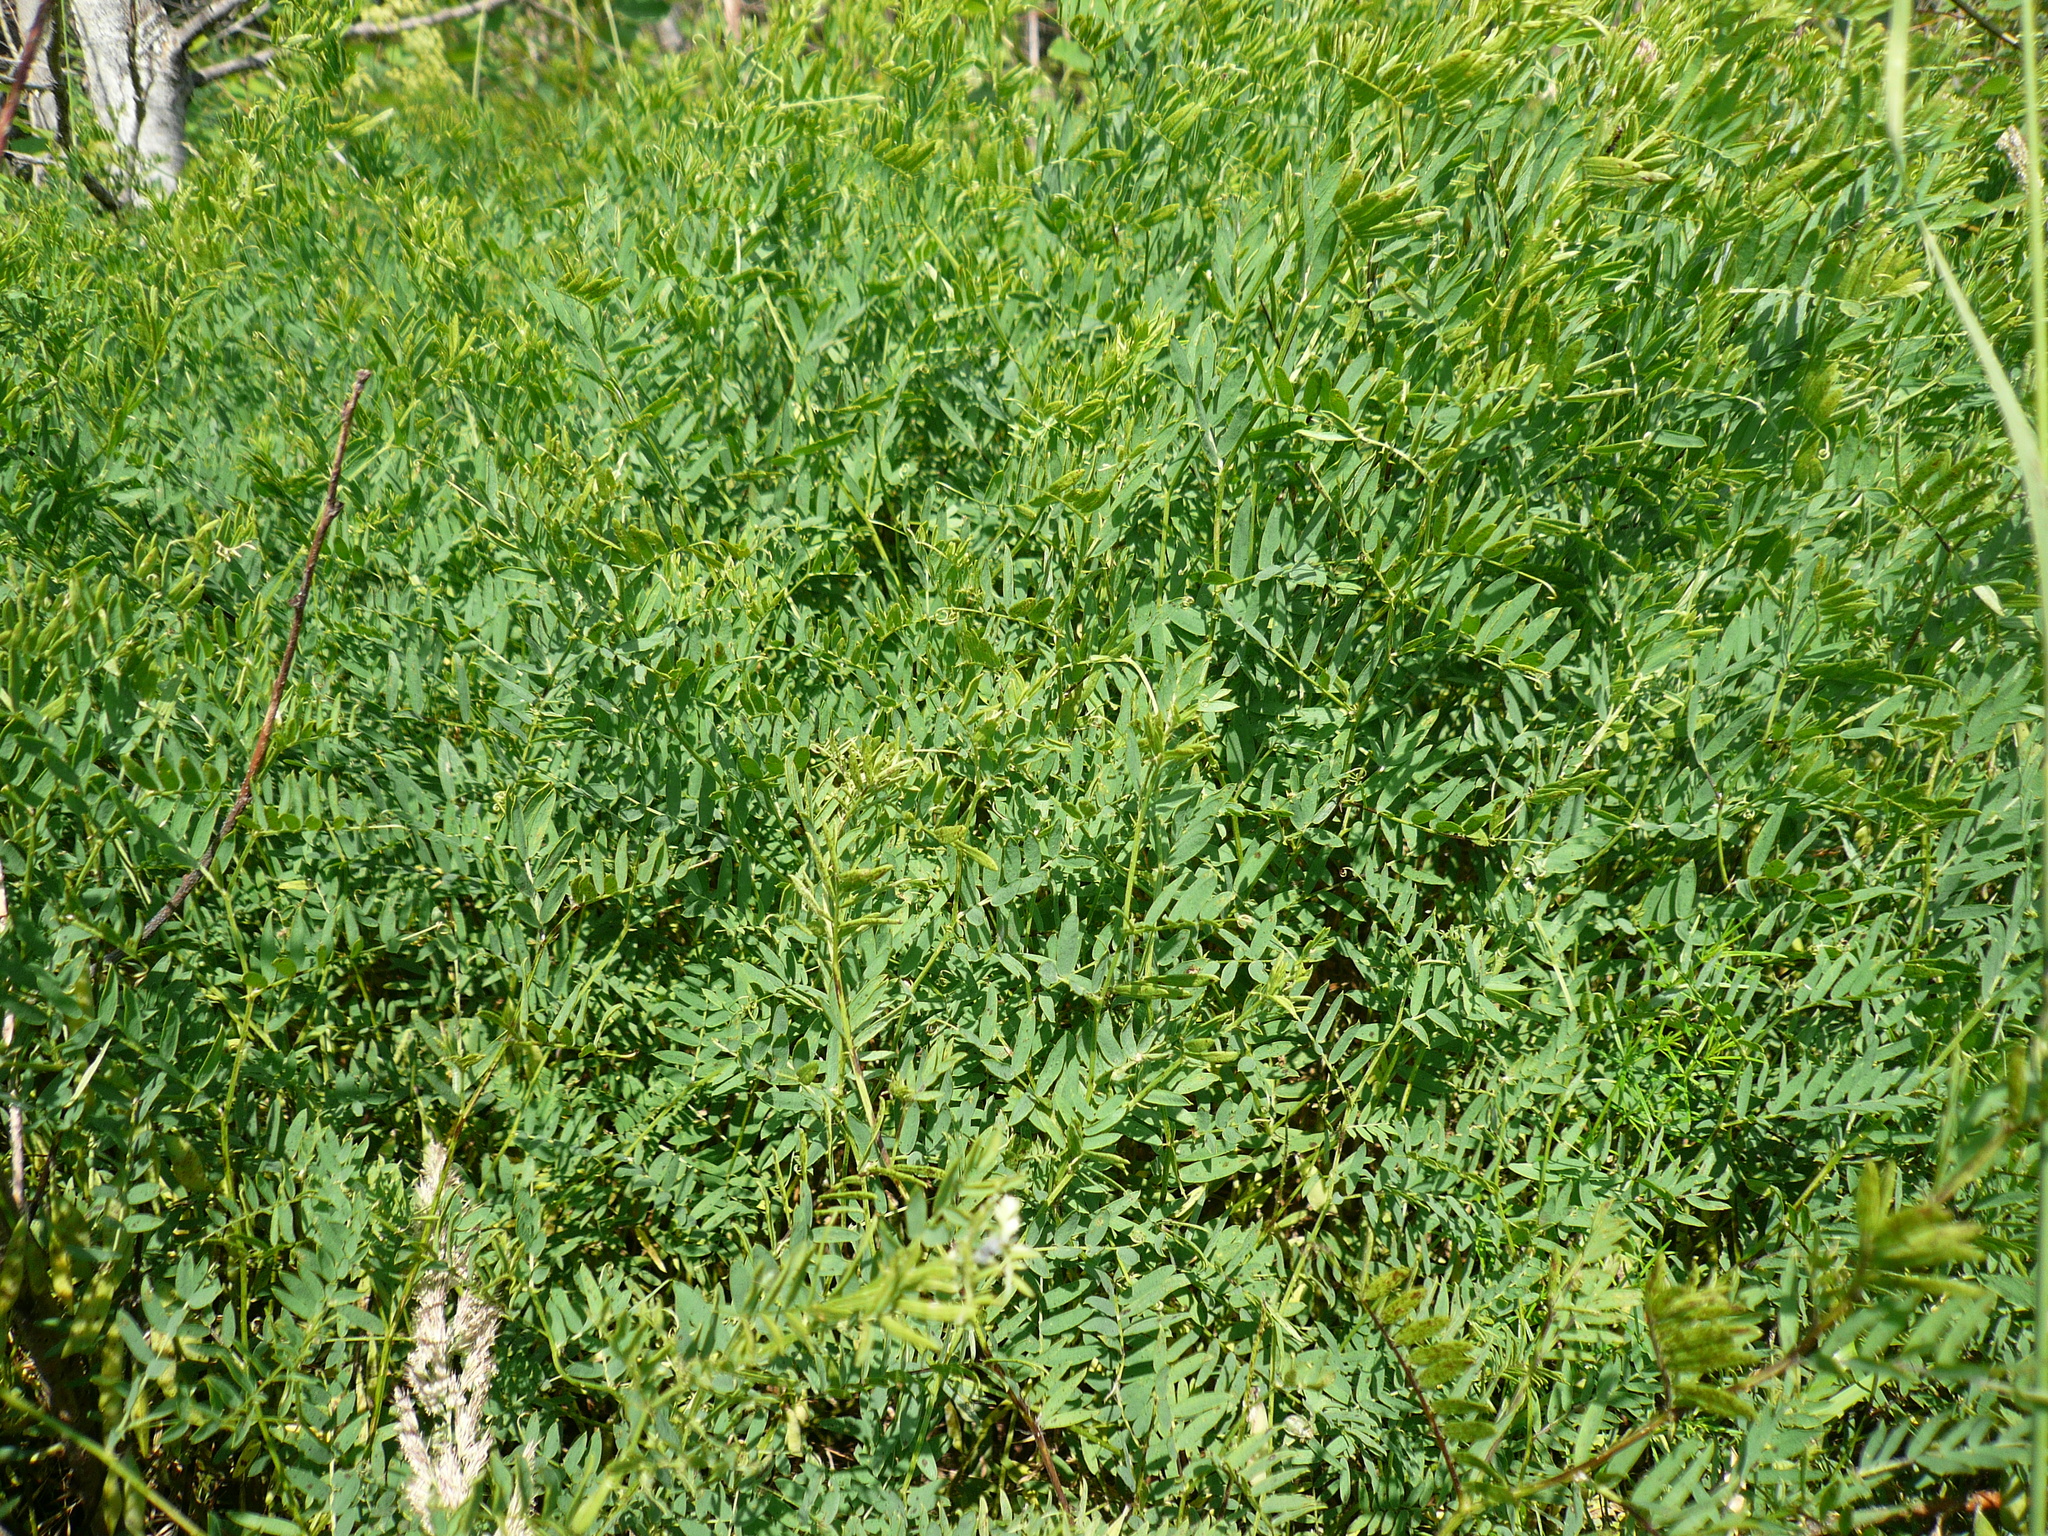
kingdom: Plantae
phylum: Tracheophyta
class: Magnoliopsida
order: Fabales
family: Fabaceae
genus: Vicia
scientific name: Vicia tenuifolia
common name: Fine-leaved vetch
